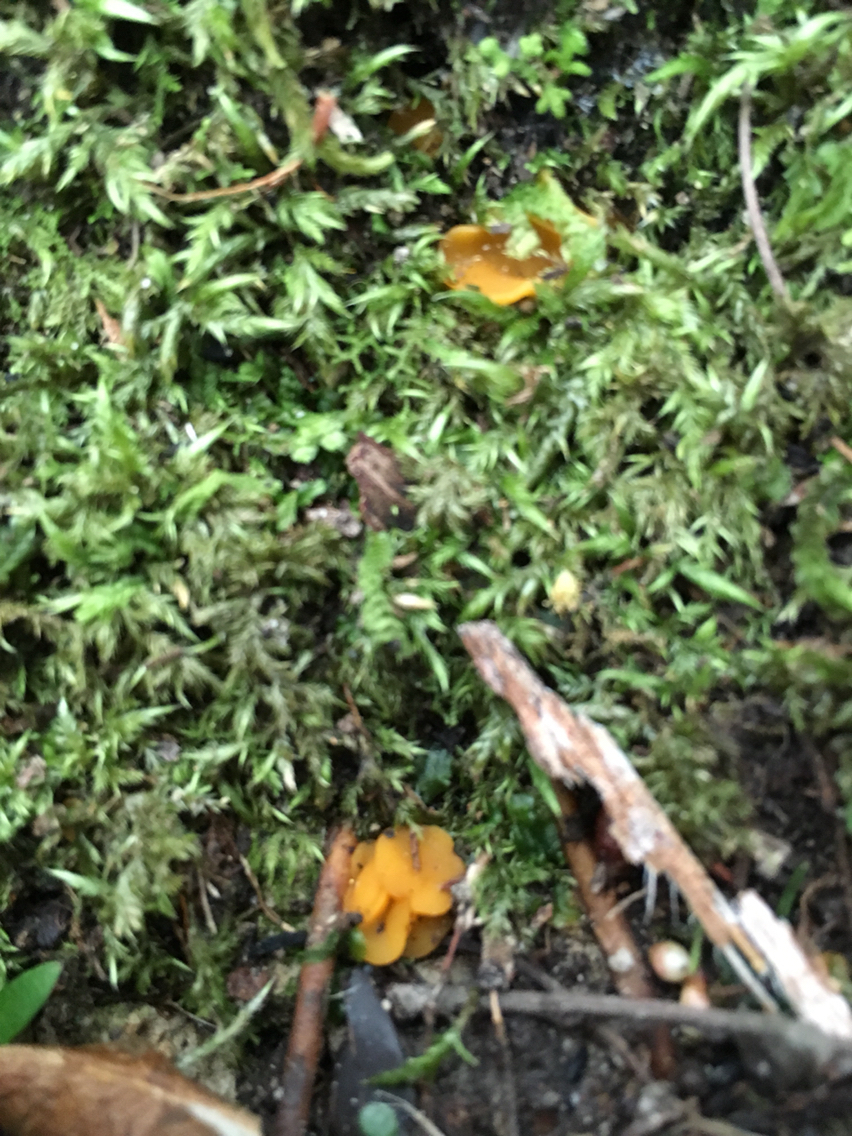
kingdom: Fungi
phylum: Ascomycota
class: Leotiomycetes
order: Helotiales
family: Helotiaceae
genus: Phaeohelotium
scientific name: Phaeohelotium baileyanum
